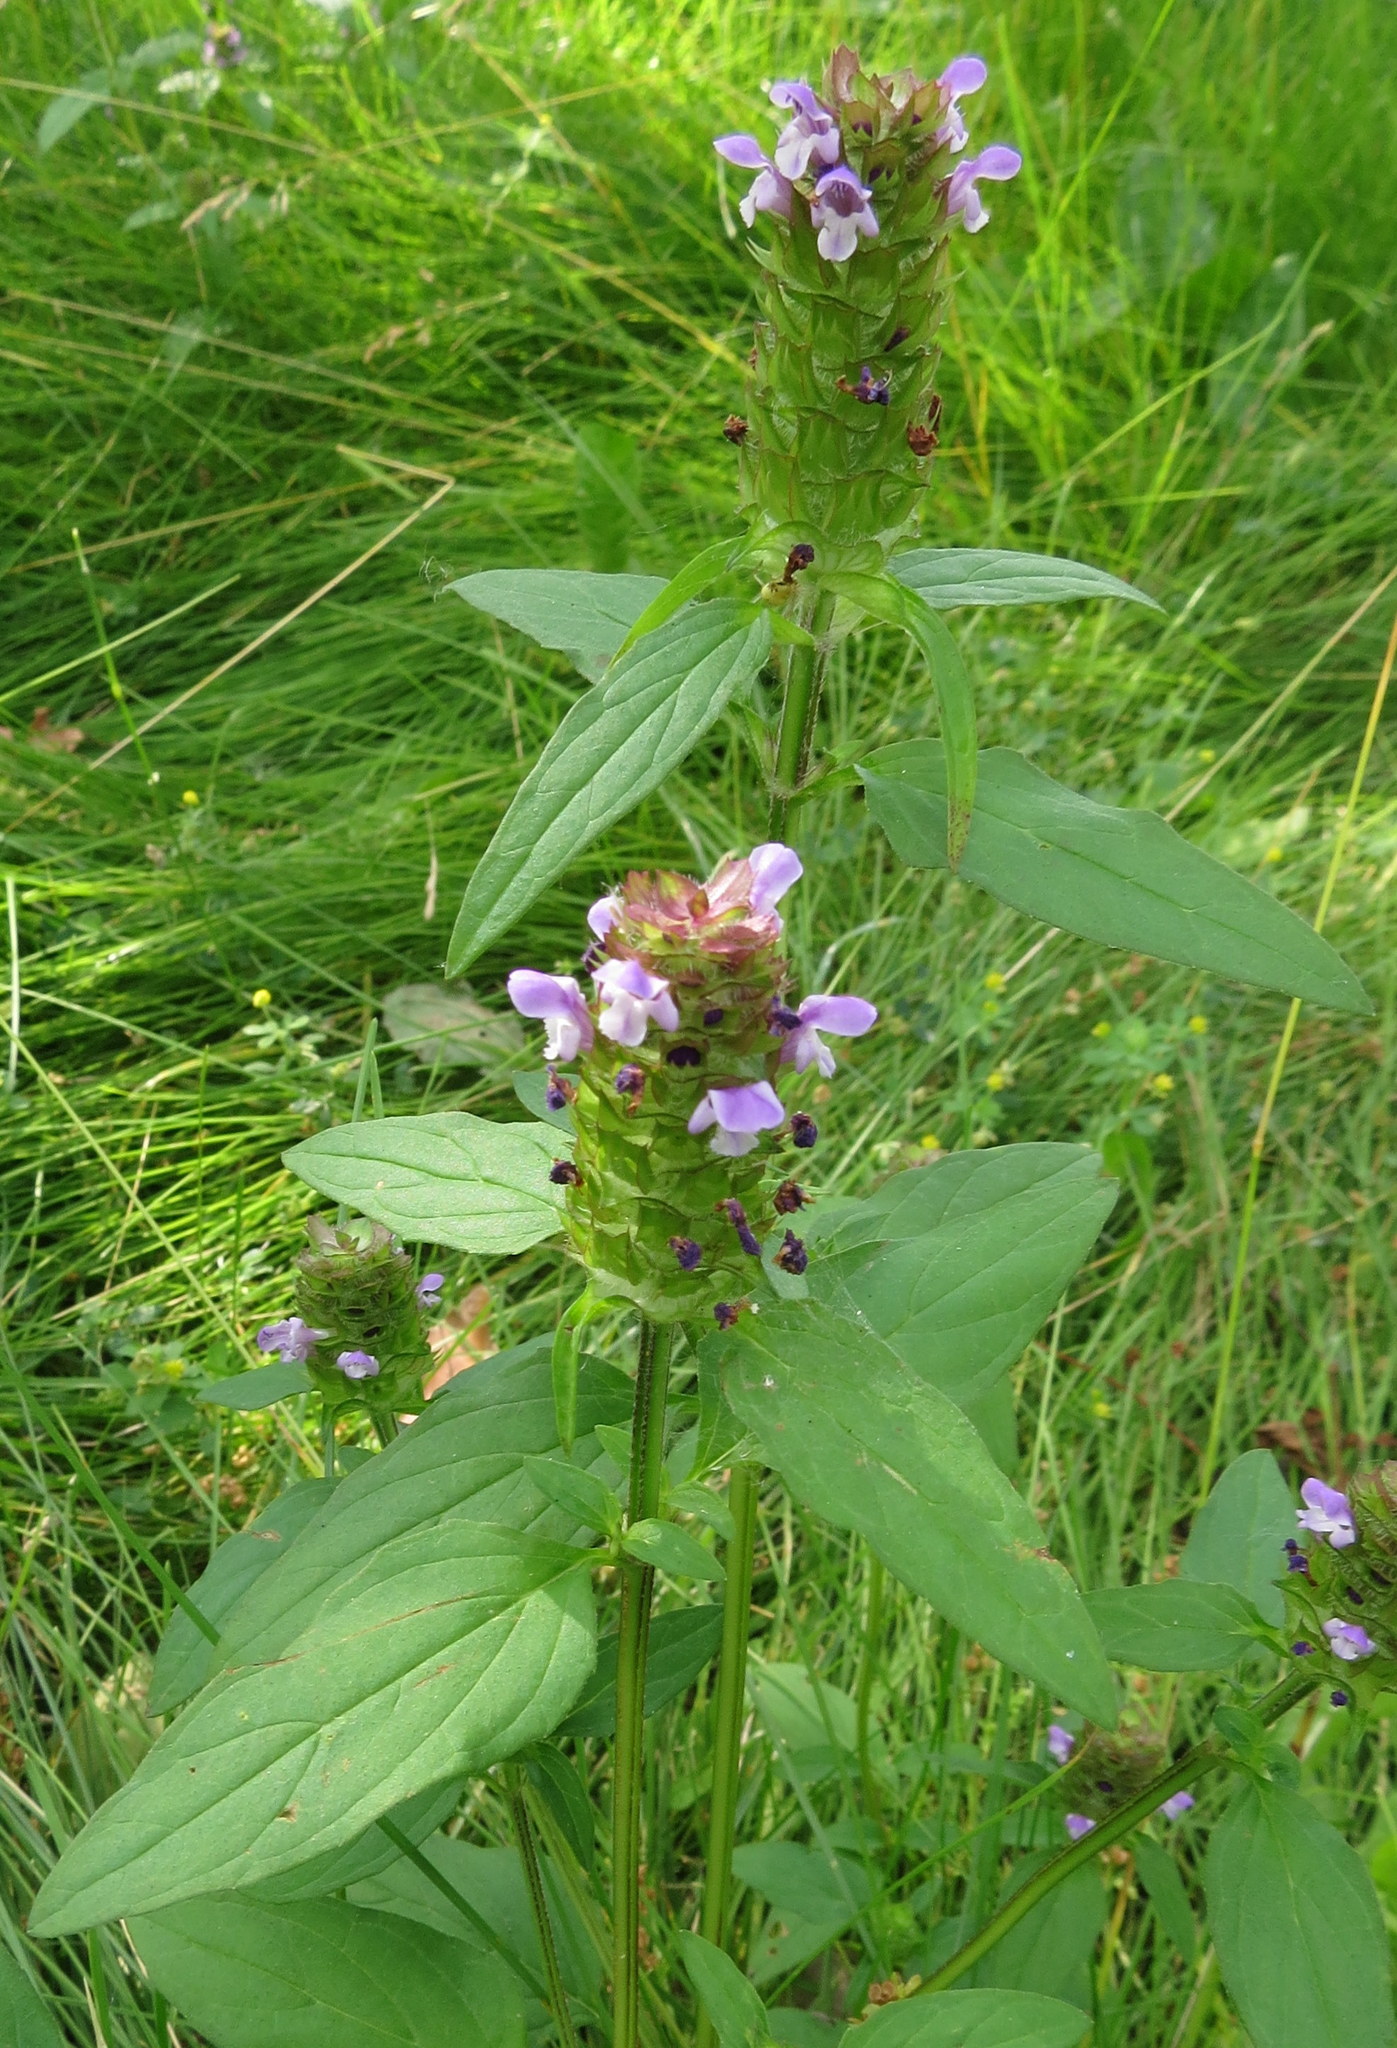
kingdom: Plantae
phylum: Tracheophyta
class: Magnoliopsida
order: Lamiales
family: Lamiaceae
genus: Prunella
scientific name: Prunella vulgaris
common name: Heal-all
